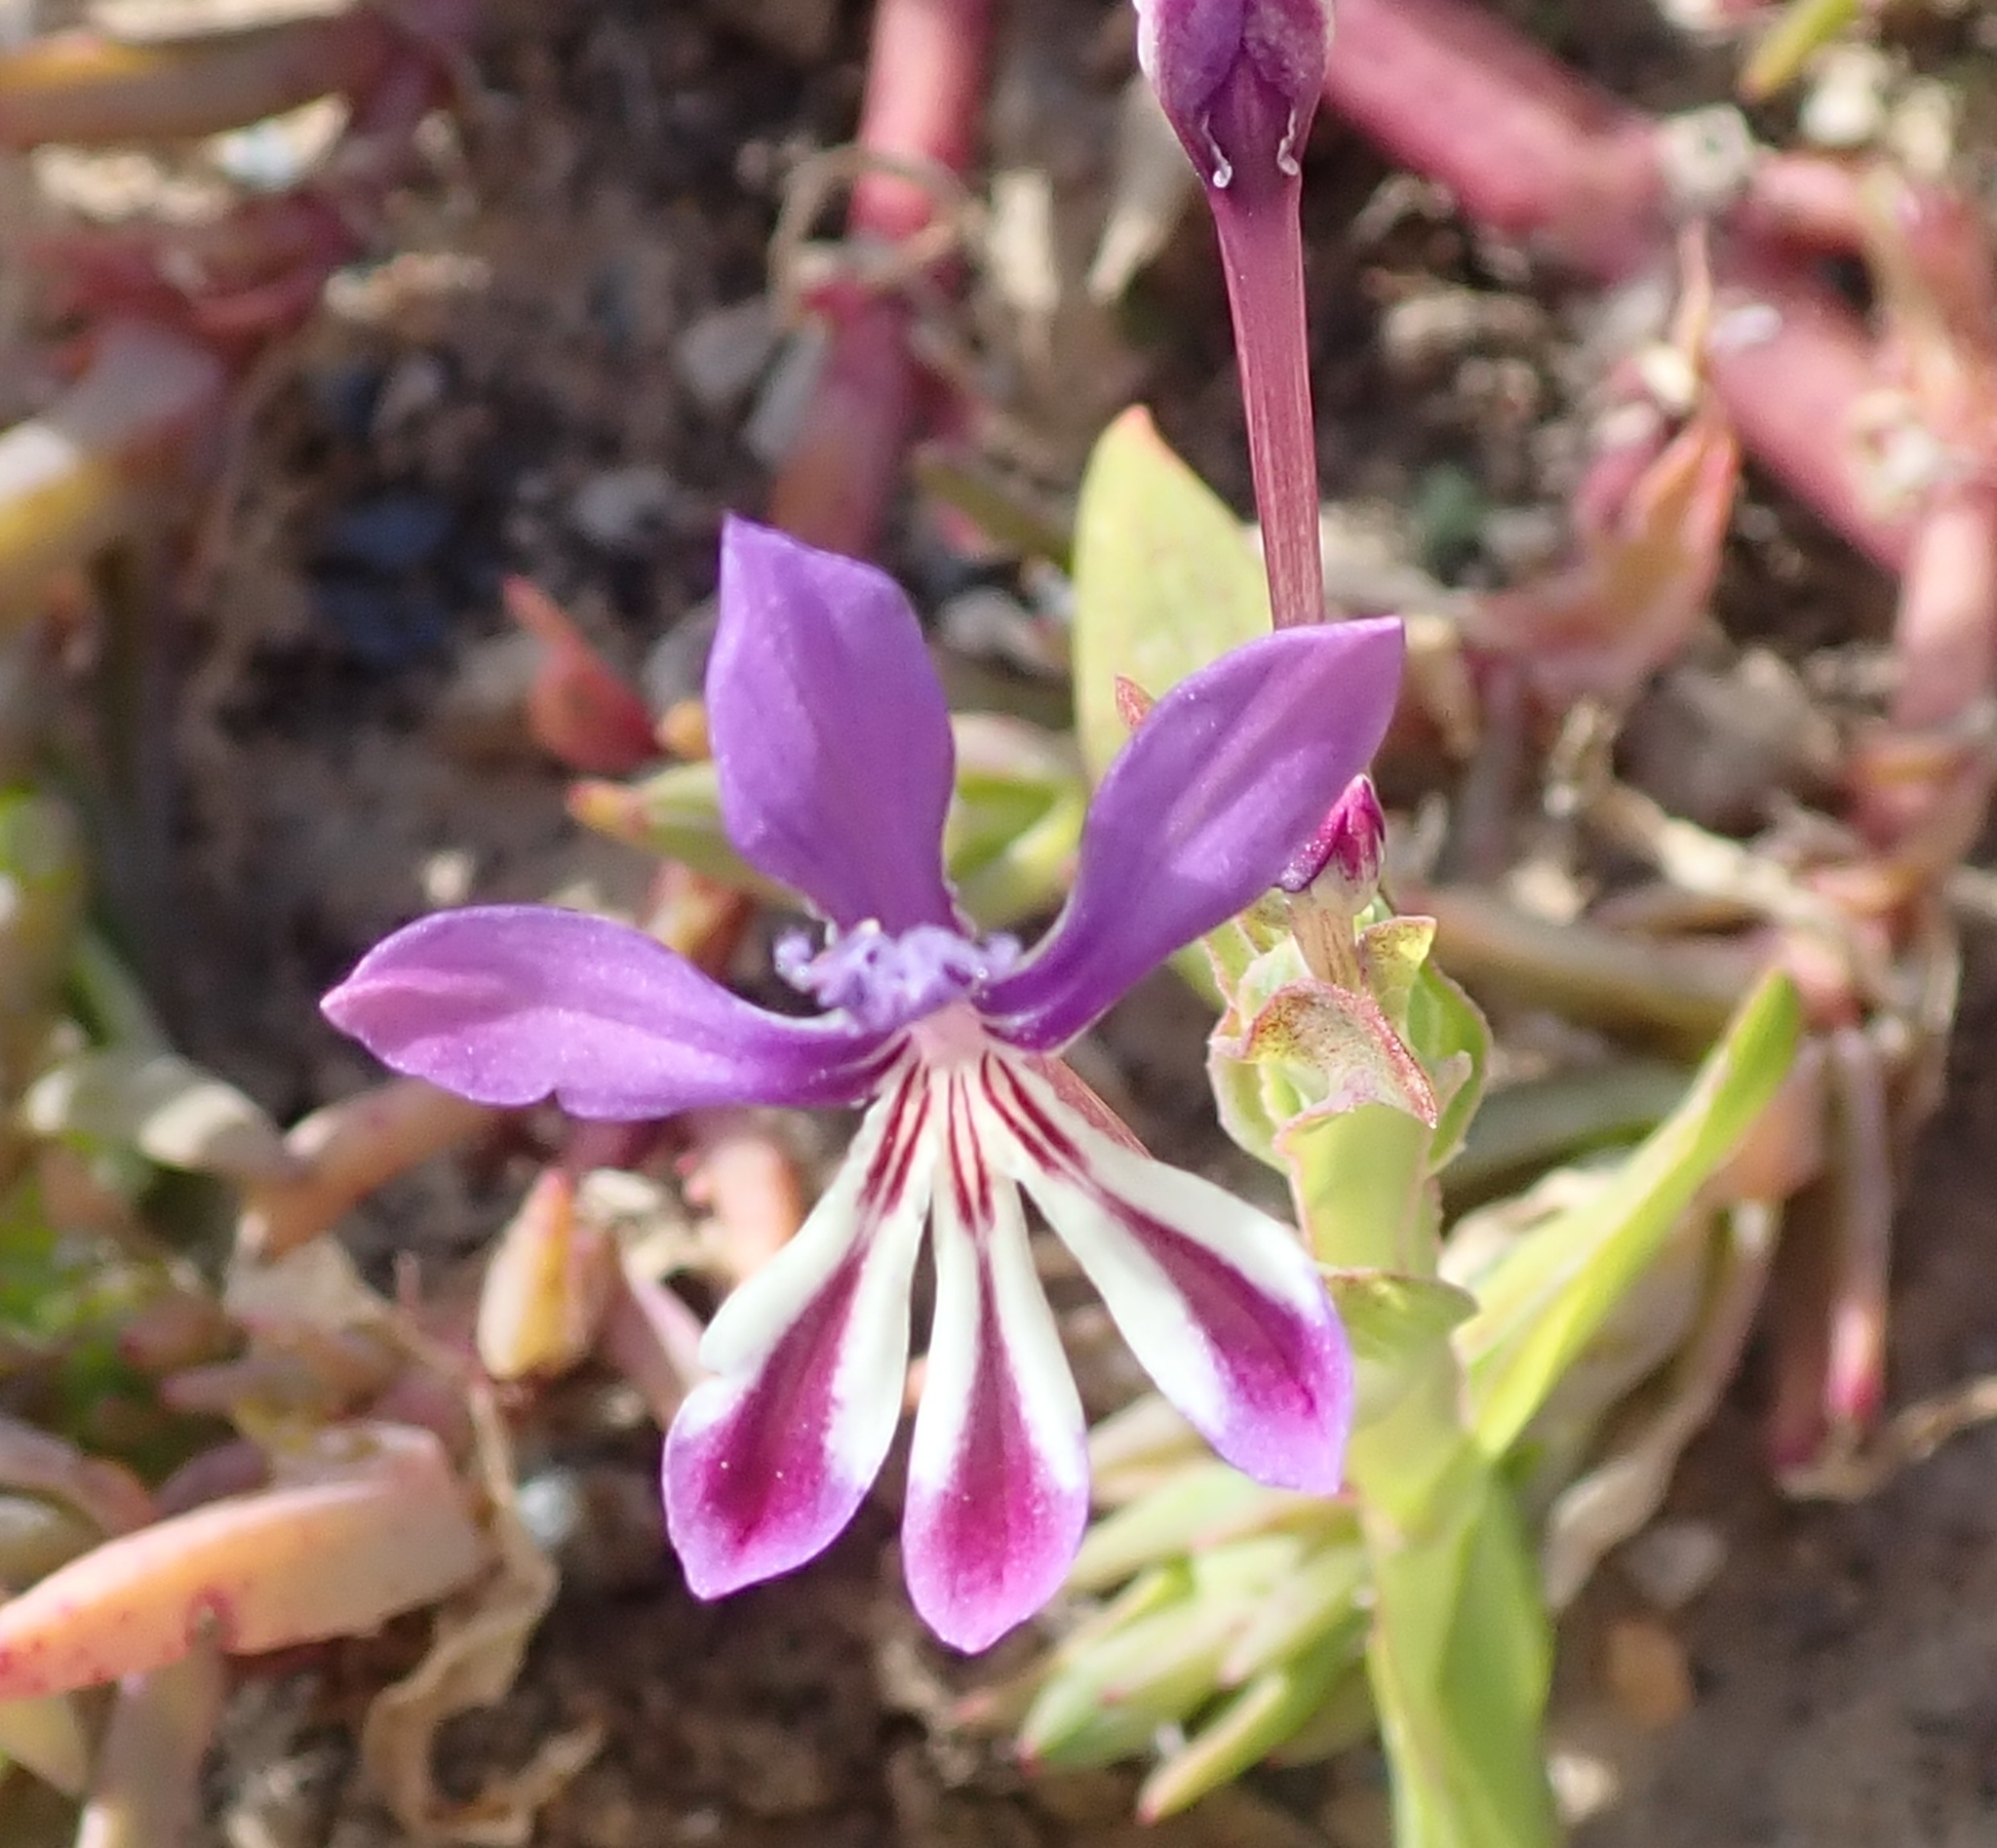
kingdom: Plantae
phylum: Tracheophyta
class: Liliopsida
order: Asparagales
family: Iridaceae
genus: Lapeirousia
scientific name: Lapeirousia jacquinii
